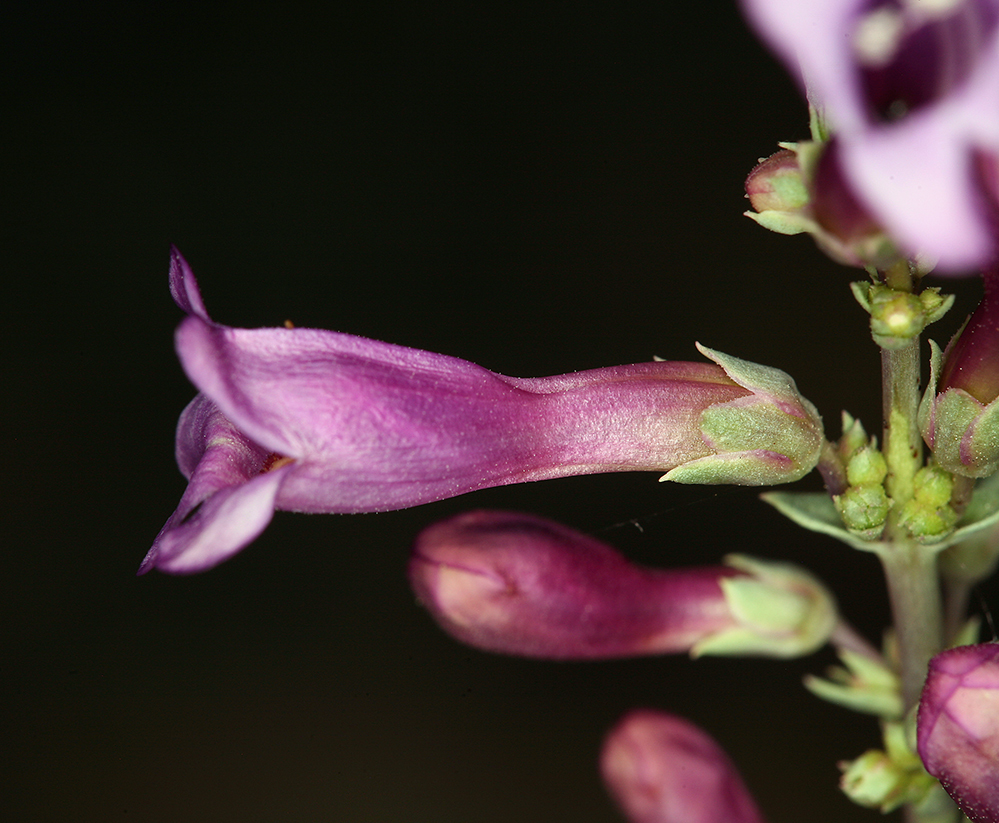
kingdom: Plantae
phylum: Tracheophyta
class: Magnoliopsida
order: Lamiales
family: Plantaginaceae
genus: Penstemon
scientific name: Penstemon patens
